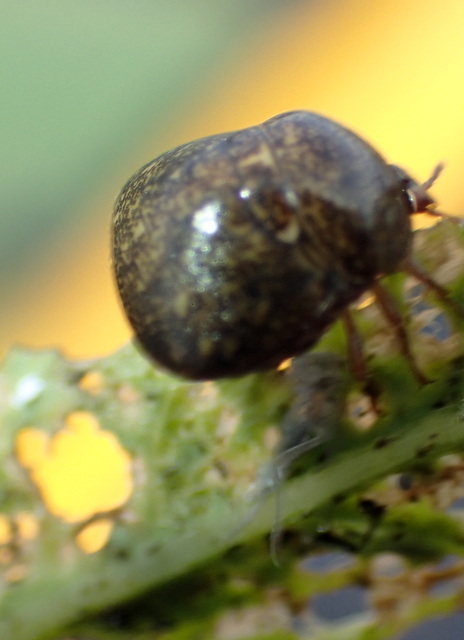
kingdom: Animalia
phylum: Arthropoda
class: Insecta
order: Hemiptera
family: Plataspidae
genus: Megacopta
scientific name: Megacopta cribraria
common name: Bean plataspid
